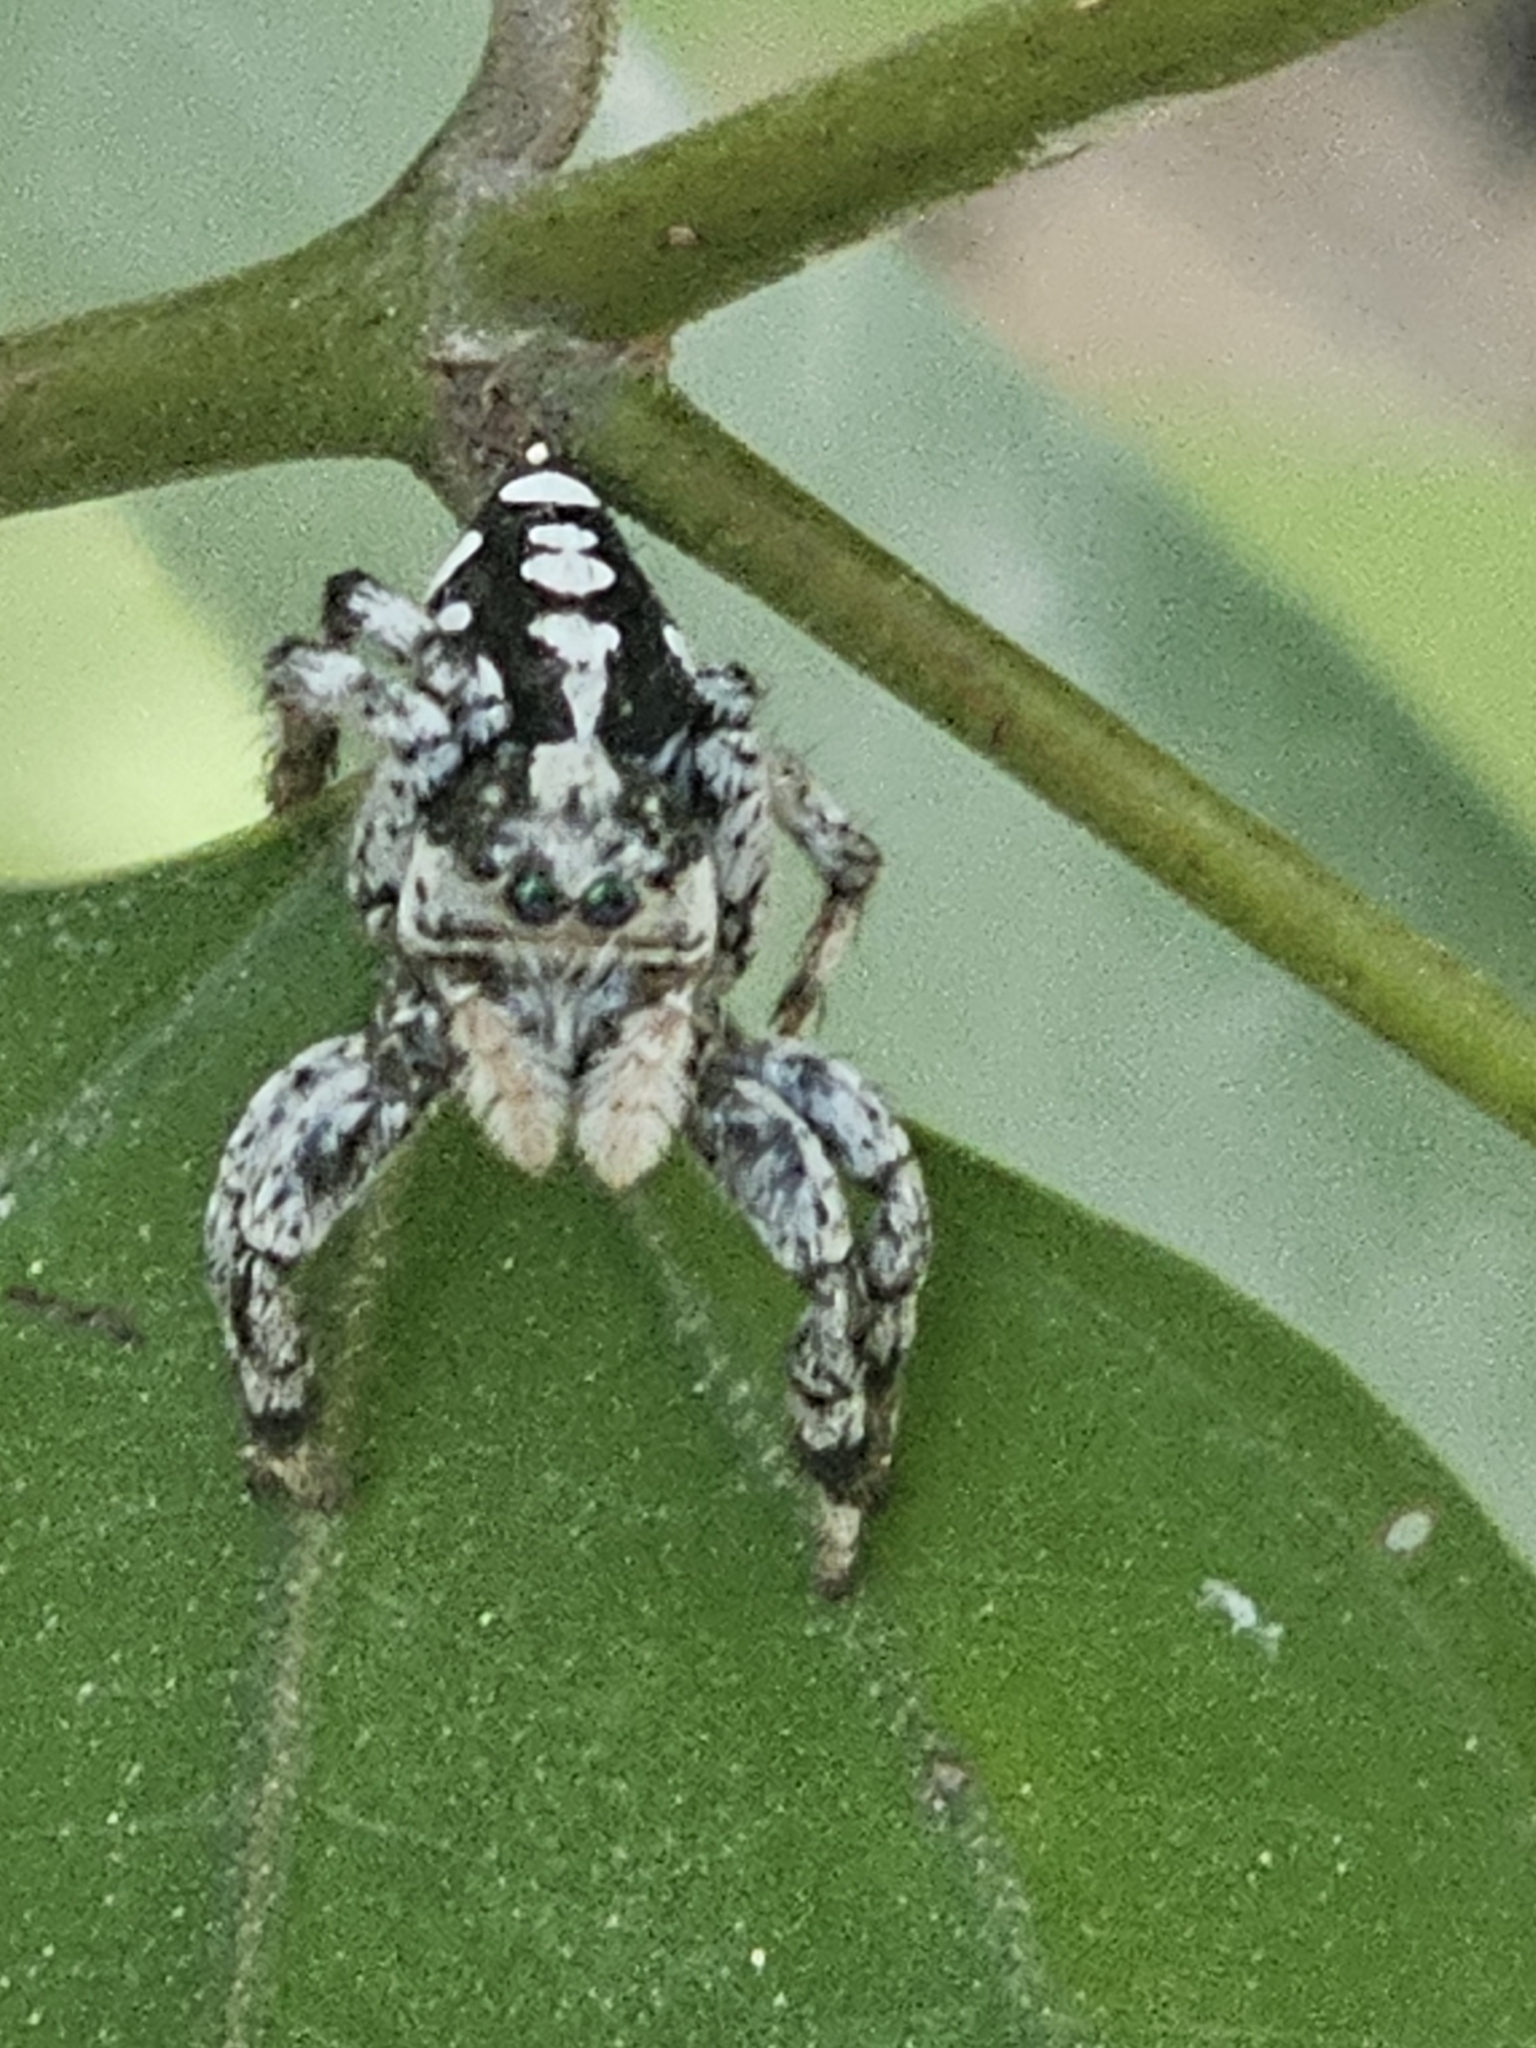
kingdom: Animalia
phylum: Arthropoda
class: Arachnida
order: Araneae
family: Salticidae
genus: Phiale
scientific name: Phiale guttata
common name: Jumping spiders
